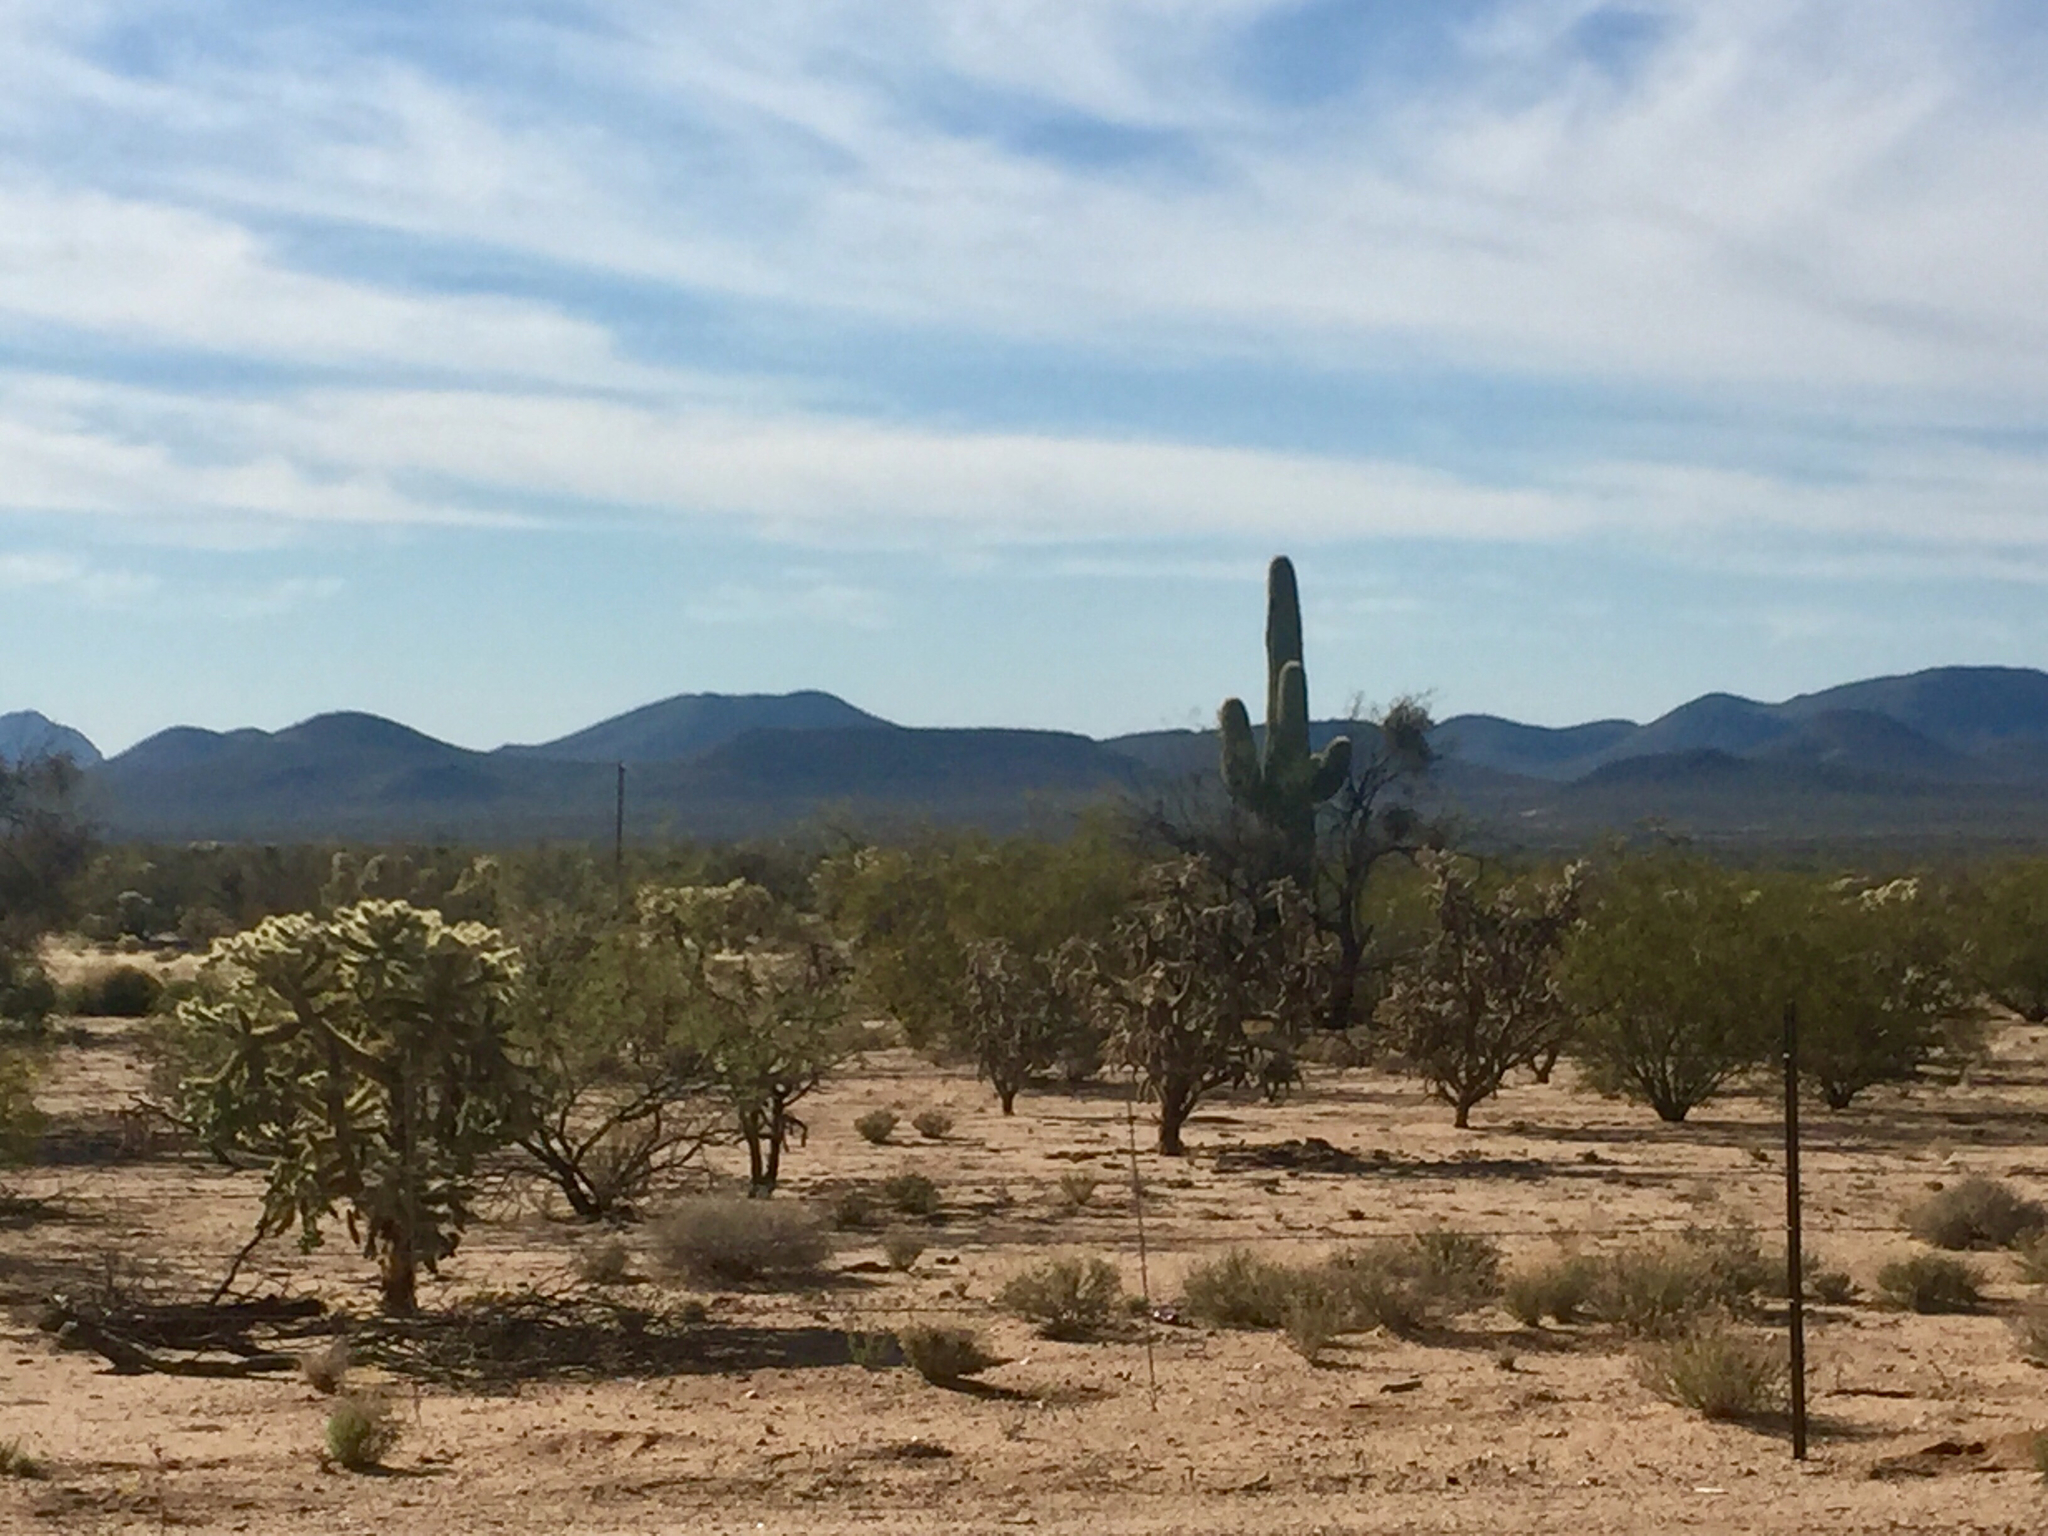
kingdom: Plantae
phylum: Tracheophyta
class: Magnoliopsida
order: Caryophyllales
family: Cactaceae
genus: Carnegiea
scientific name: Carnegiea gigantea
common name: Saguaro
